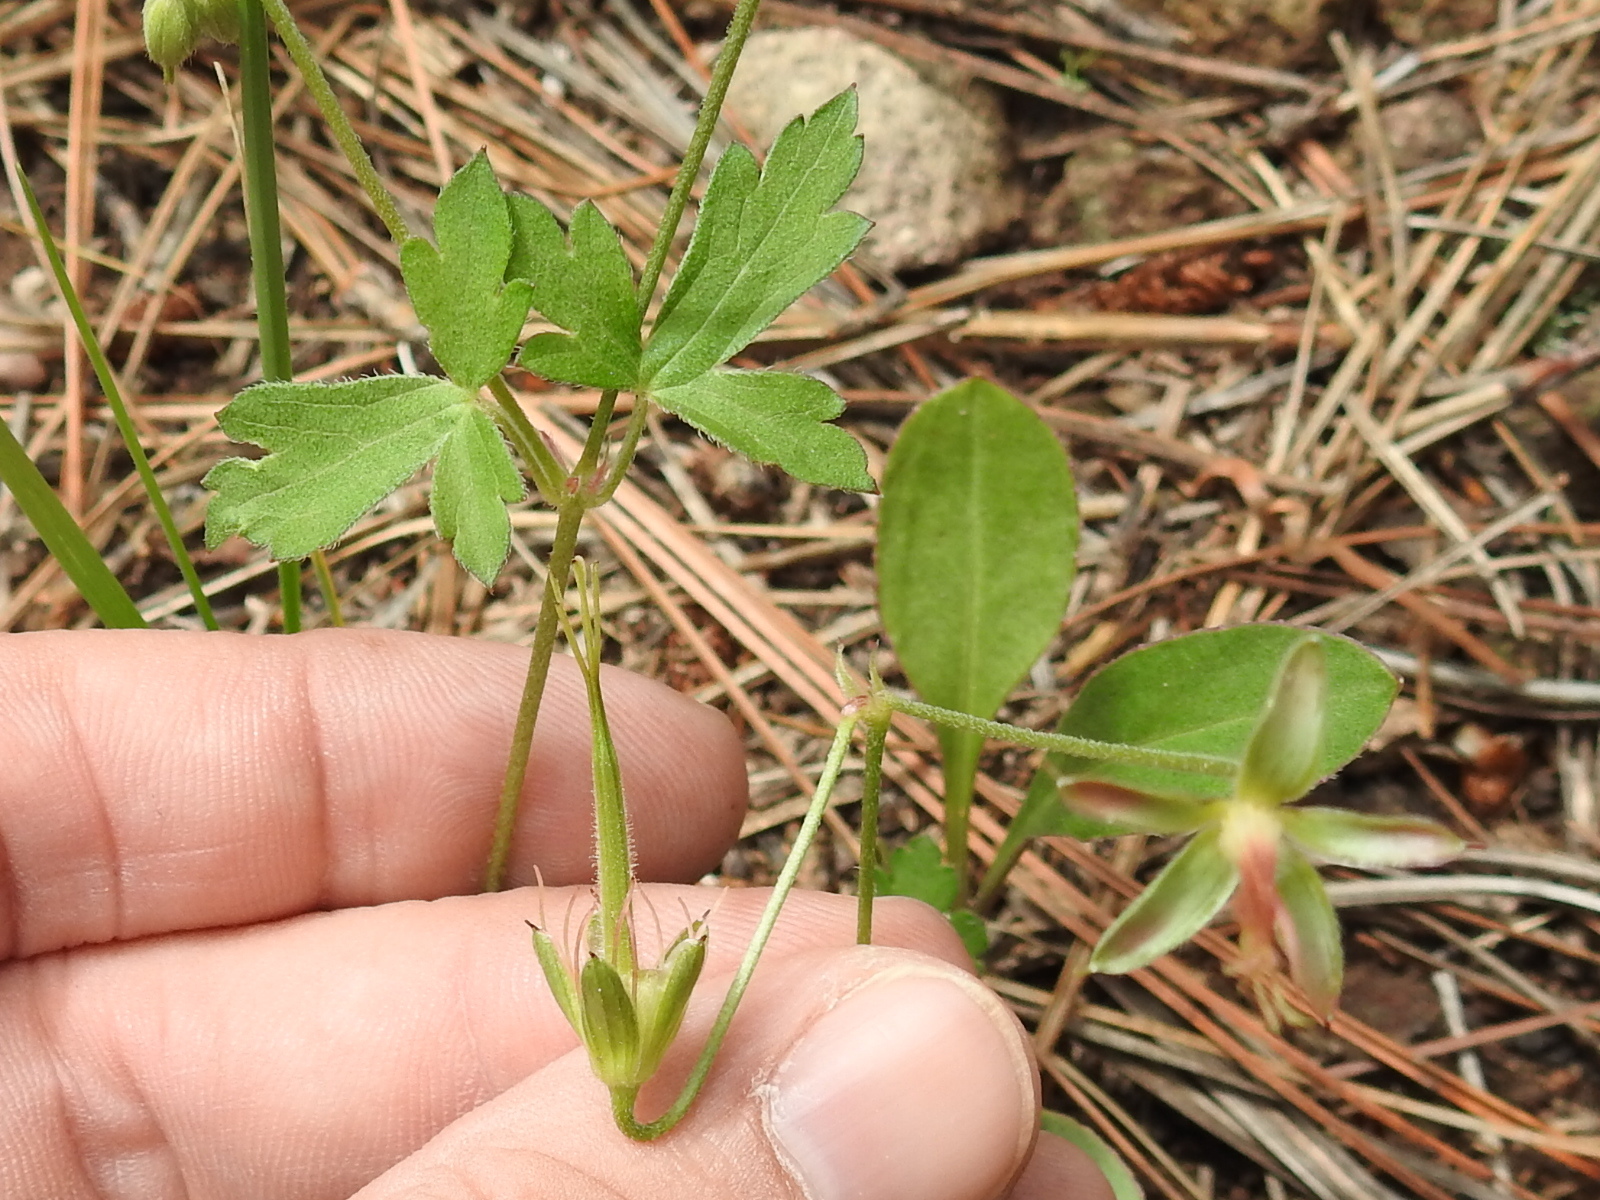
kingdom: Plantae
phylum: Tracheophyta
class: Magnoliopsida
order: Geraniales
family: Geraniaceae
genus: Geranium
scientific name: Geranium caespitosum
